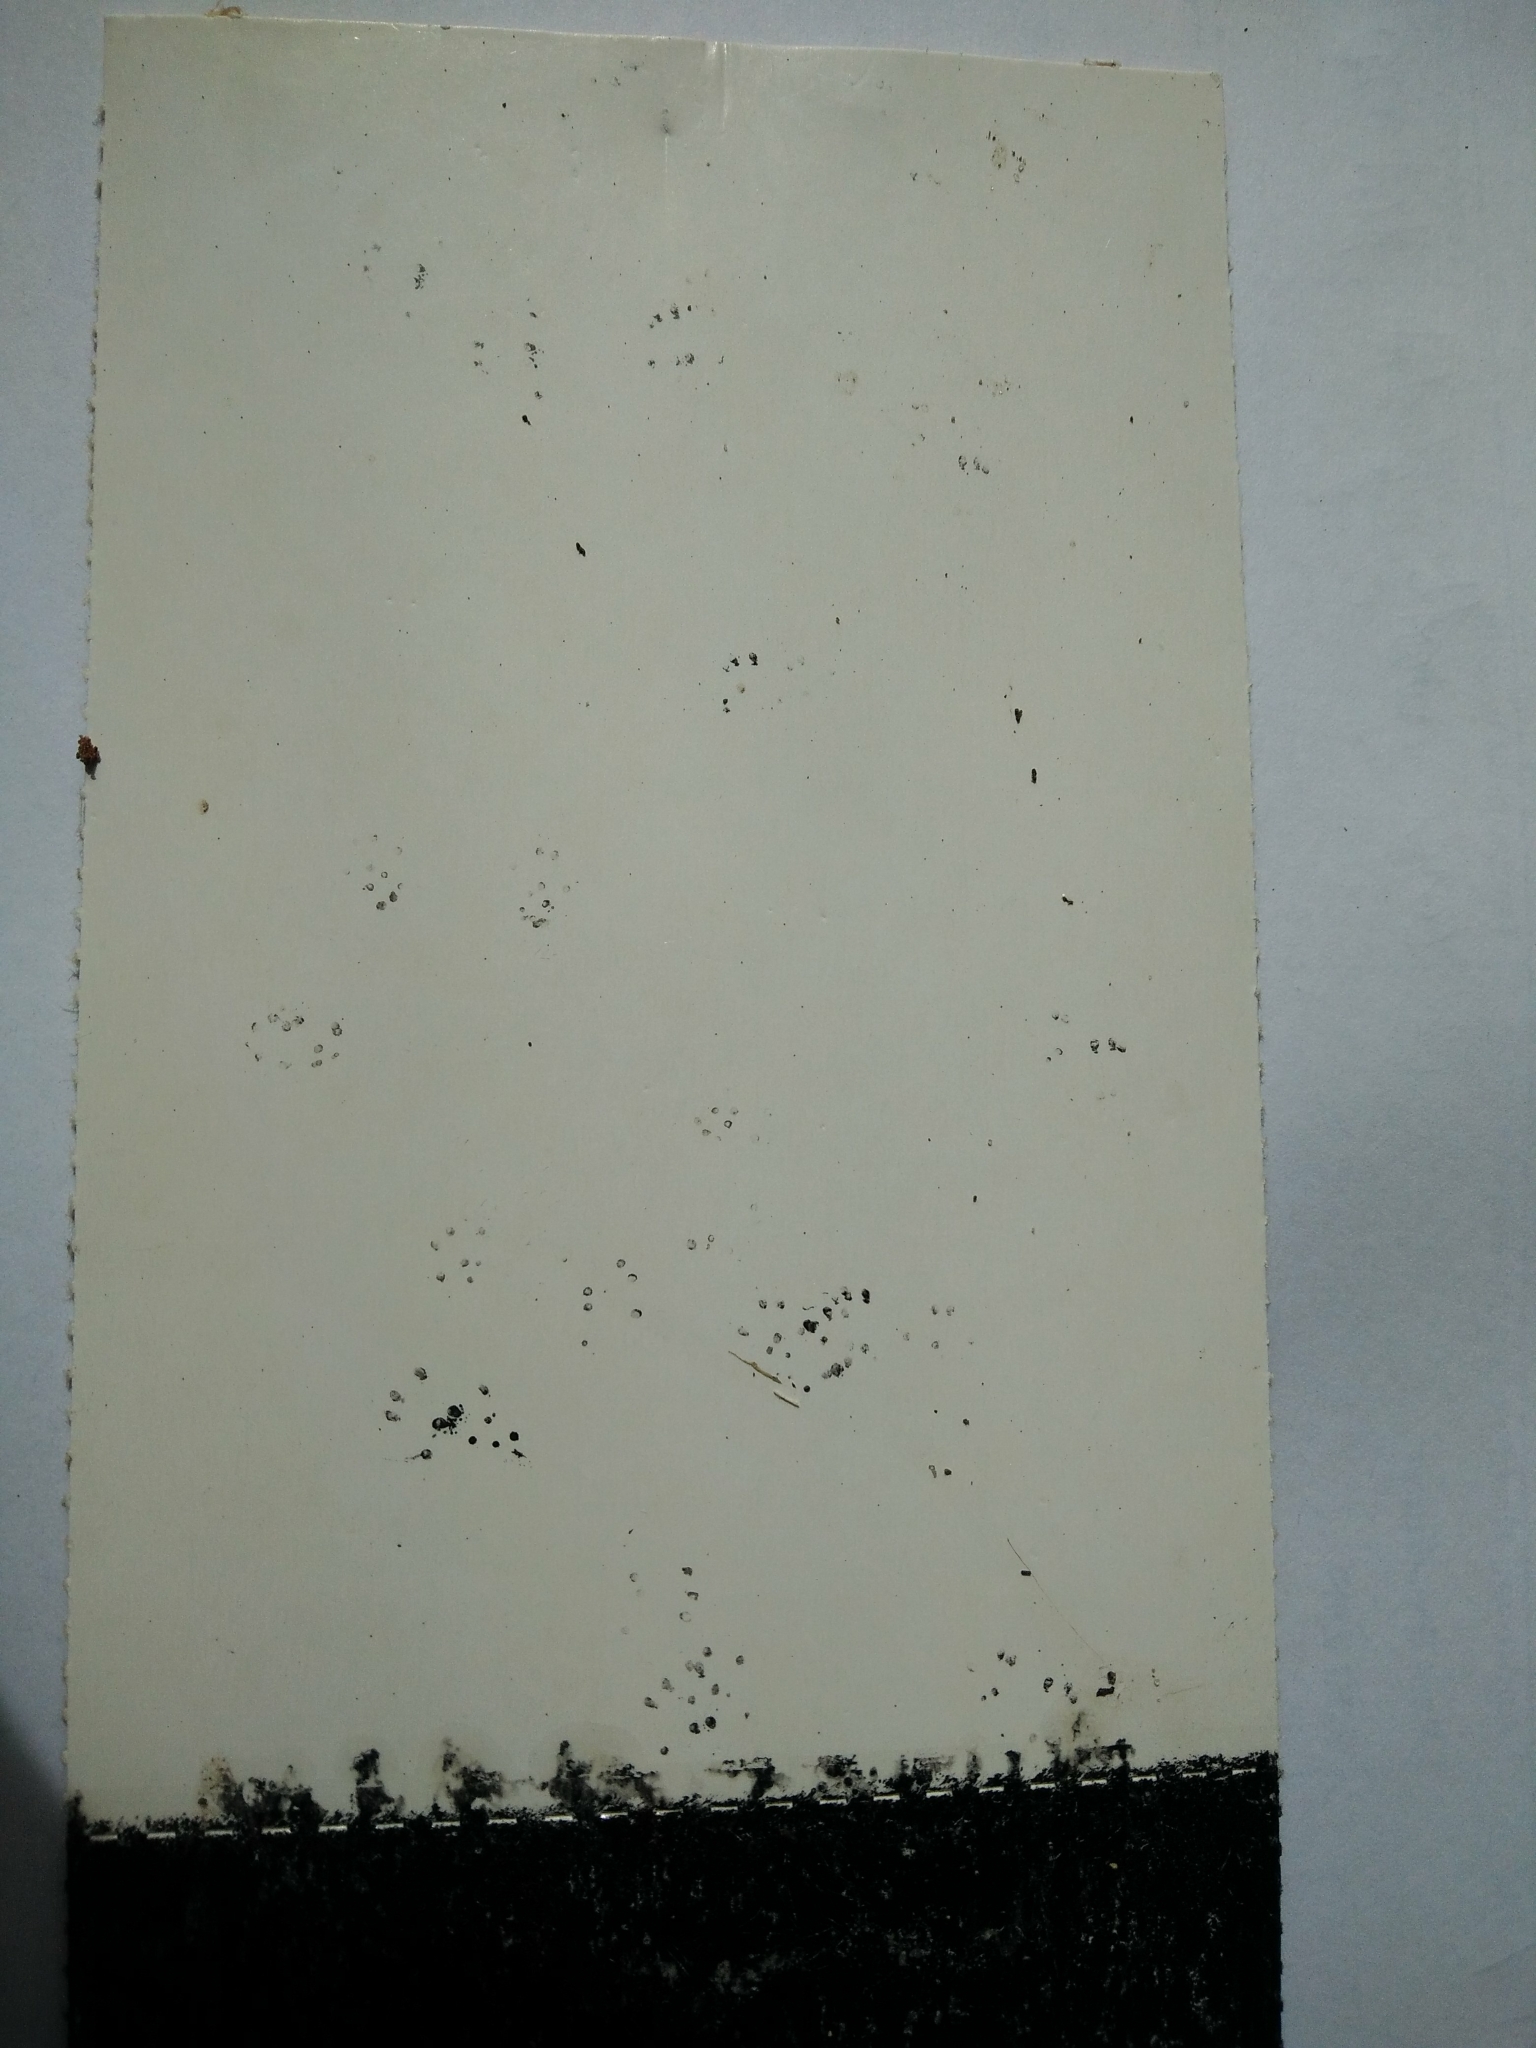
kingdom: Animalia
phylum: Chordata
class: Mammalia
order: Rodentia
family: Muridae
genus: Mus
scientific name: Mus musculus
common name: House mouse
